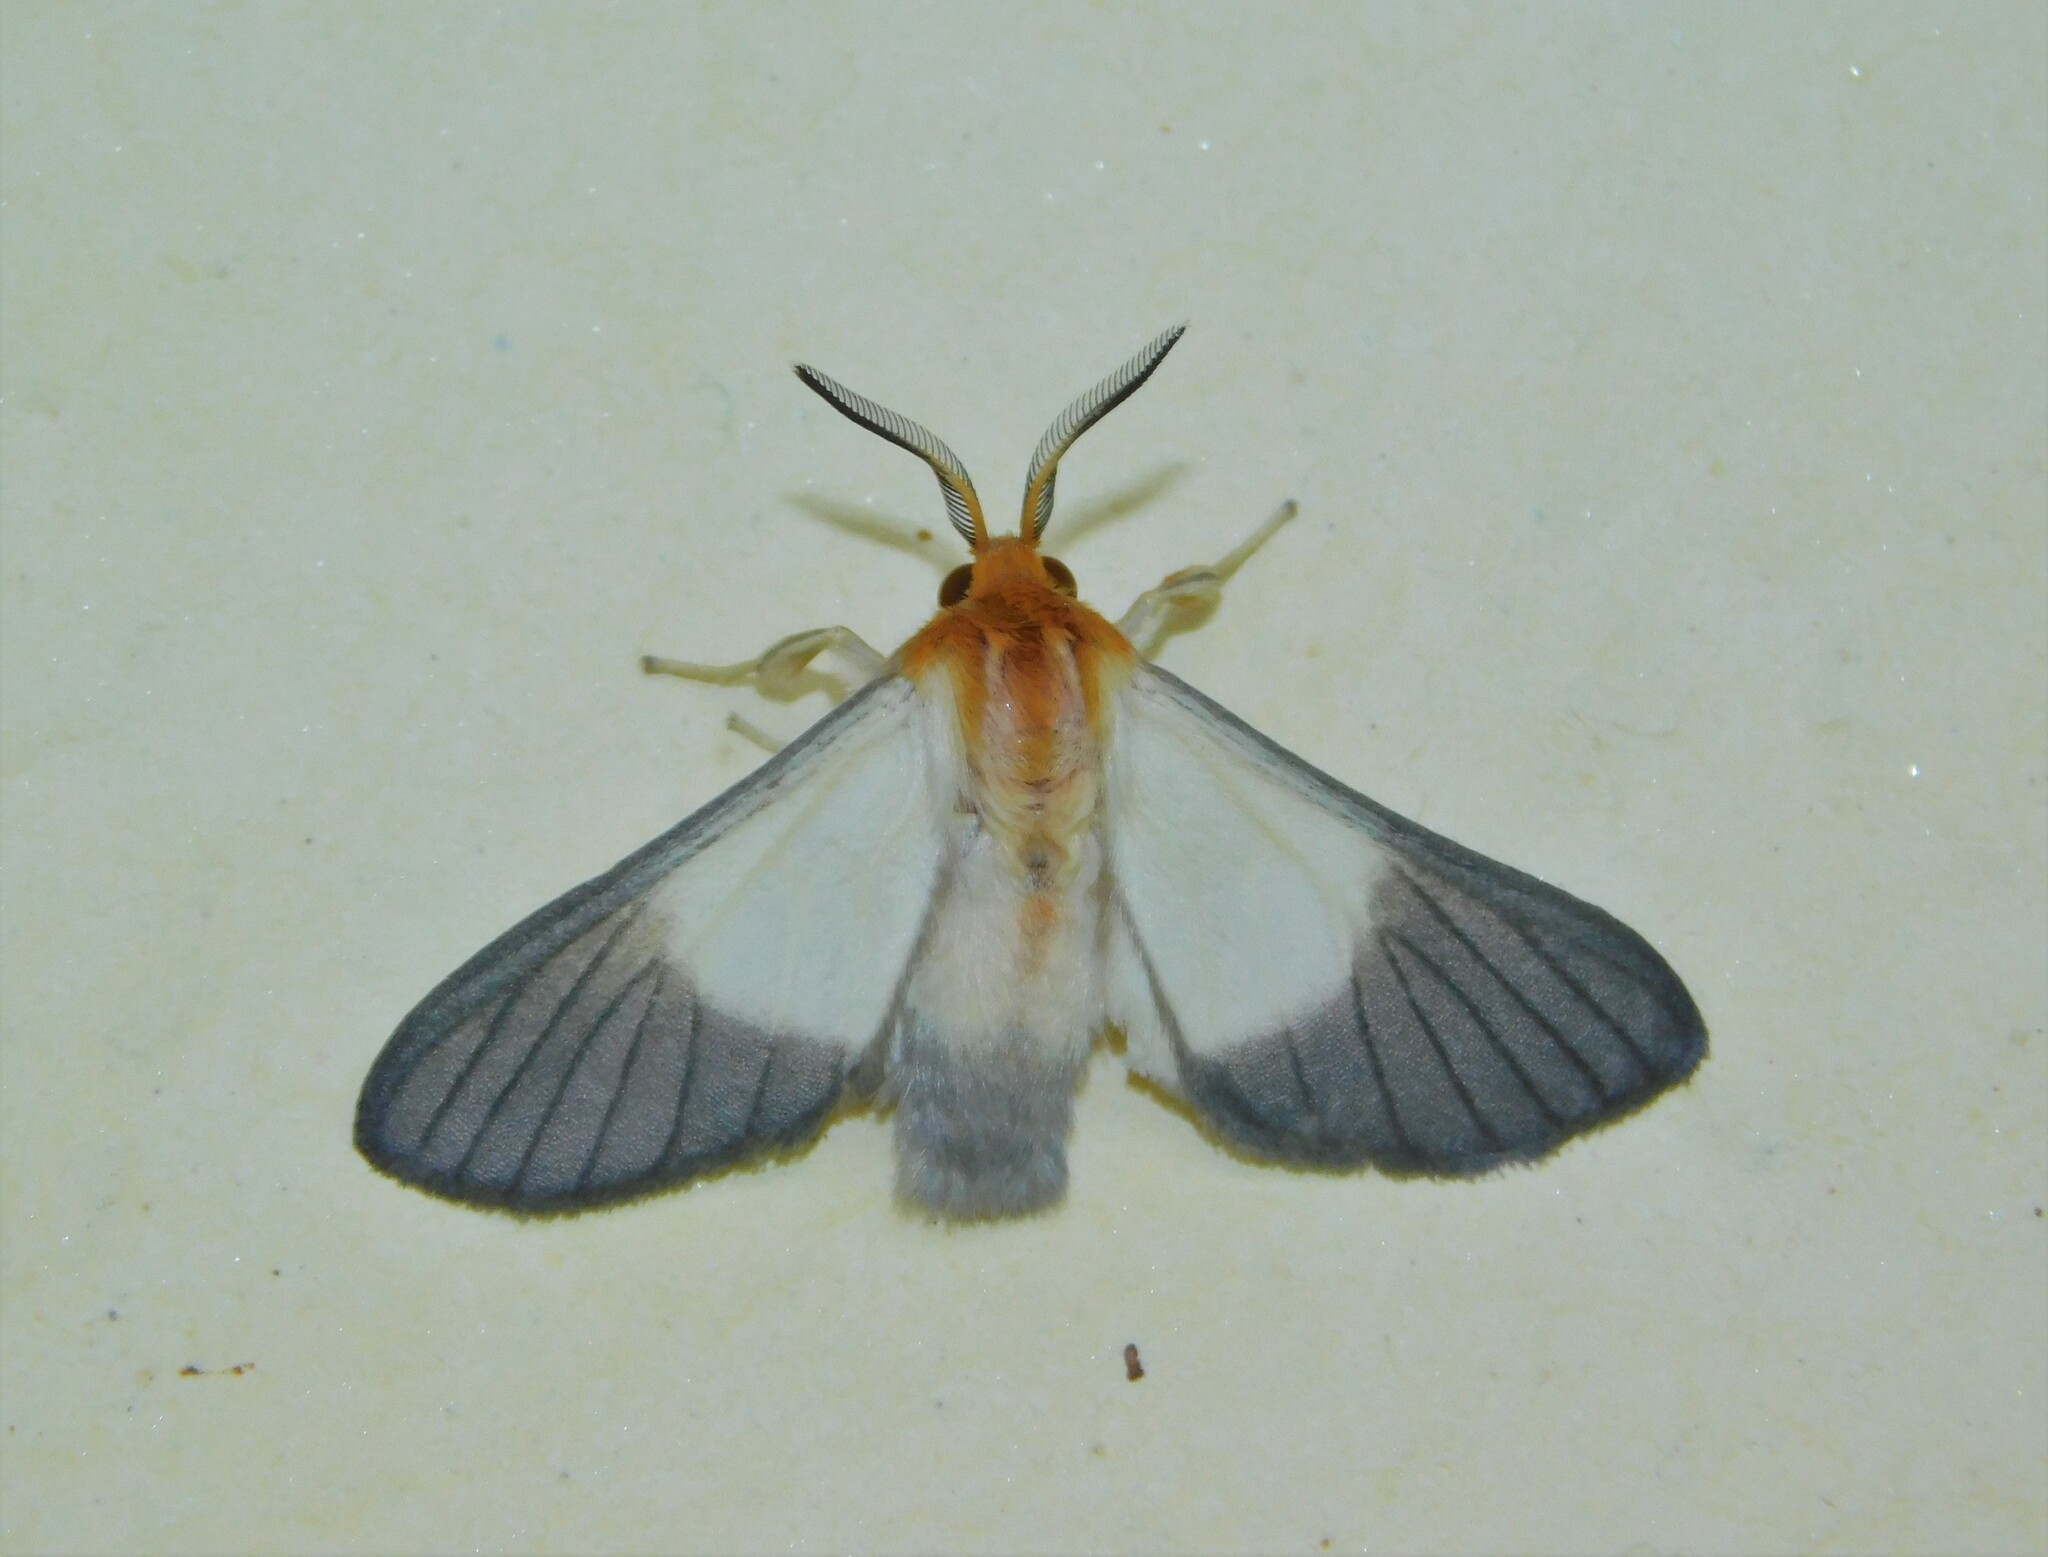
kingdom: Animalia
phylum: Arthropoda
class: Insecta
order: Lepidoptera
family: Erebidae
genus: Anapisa
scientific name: Anapisa melaleuca
